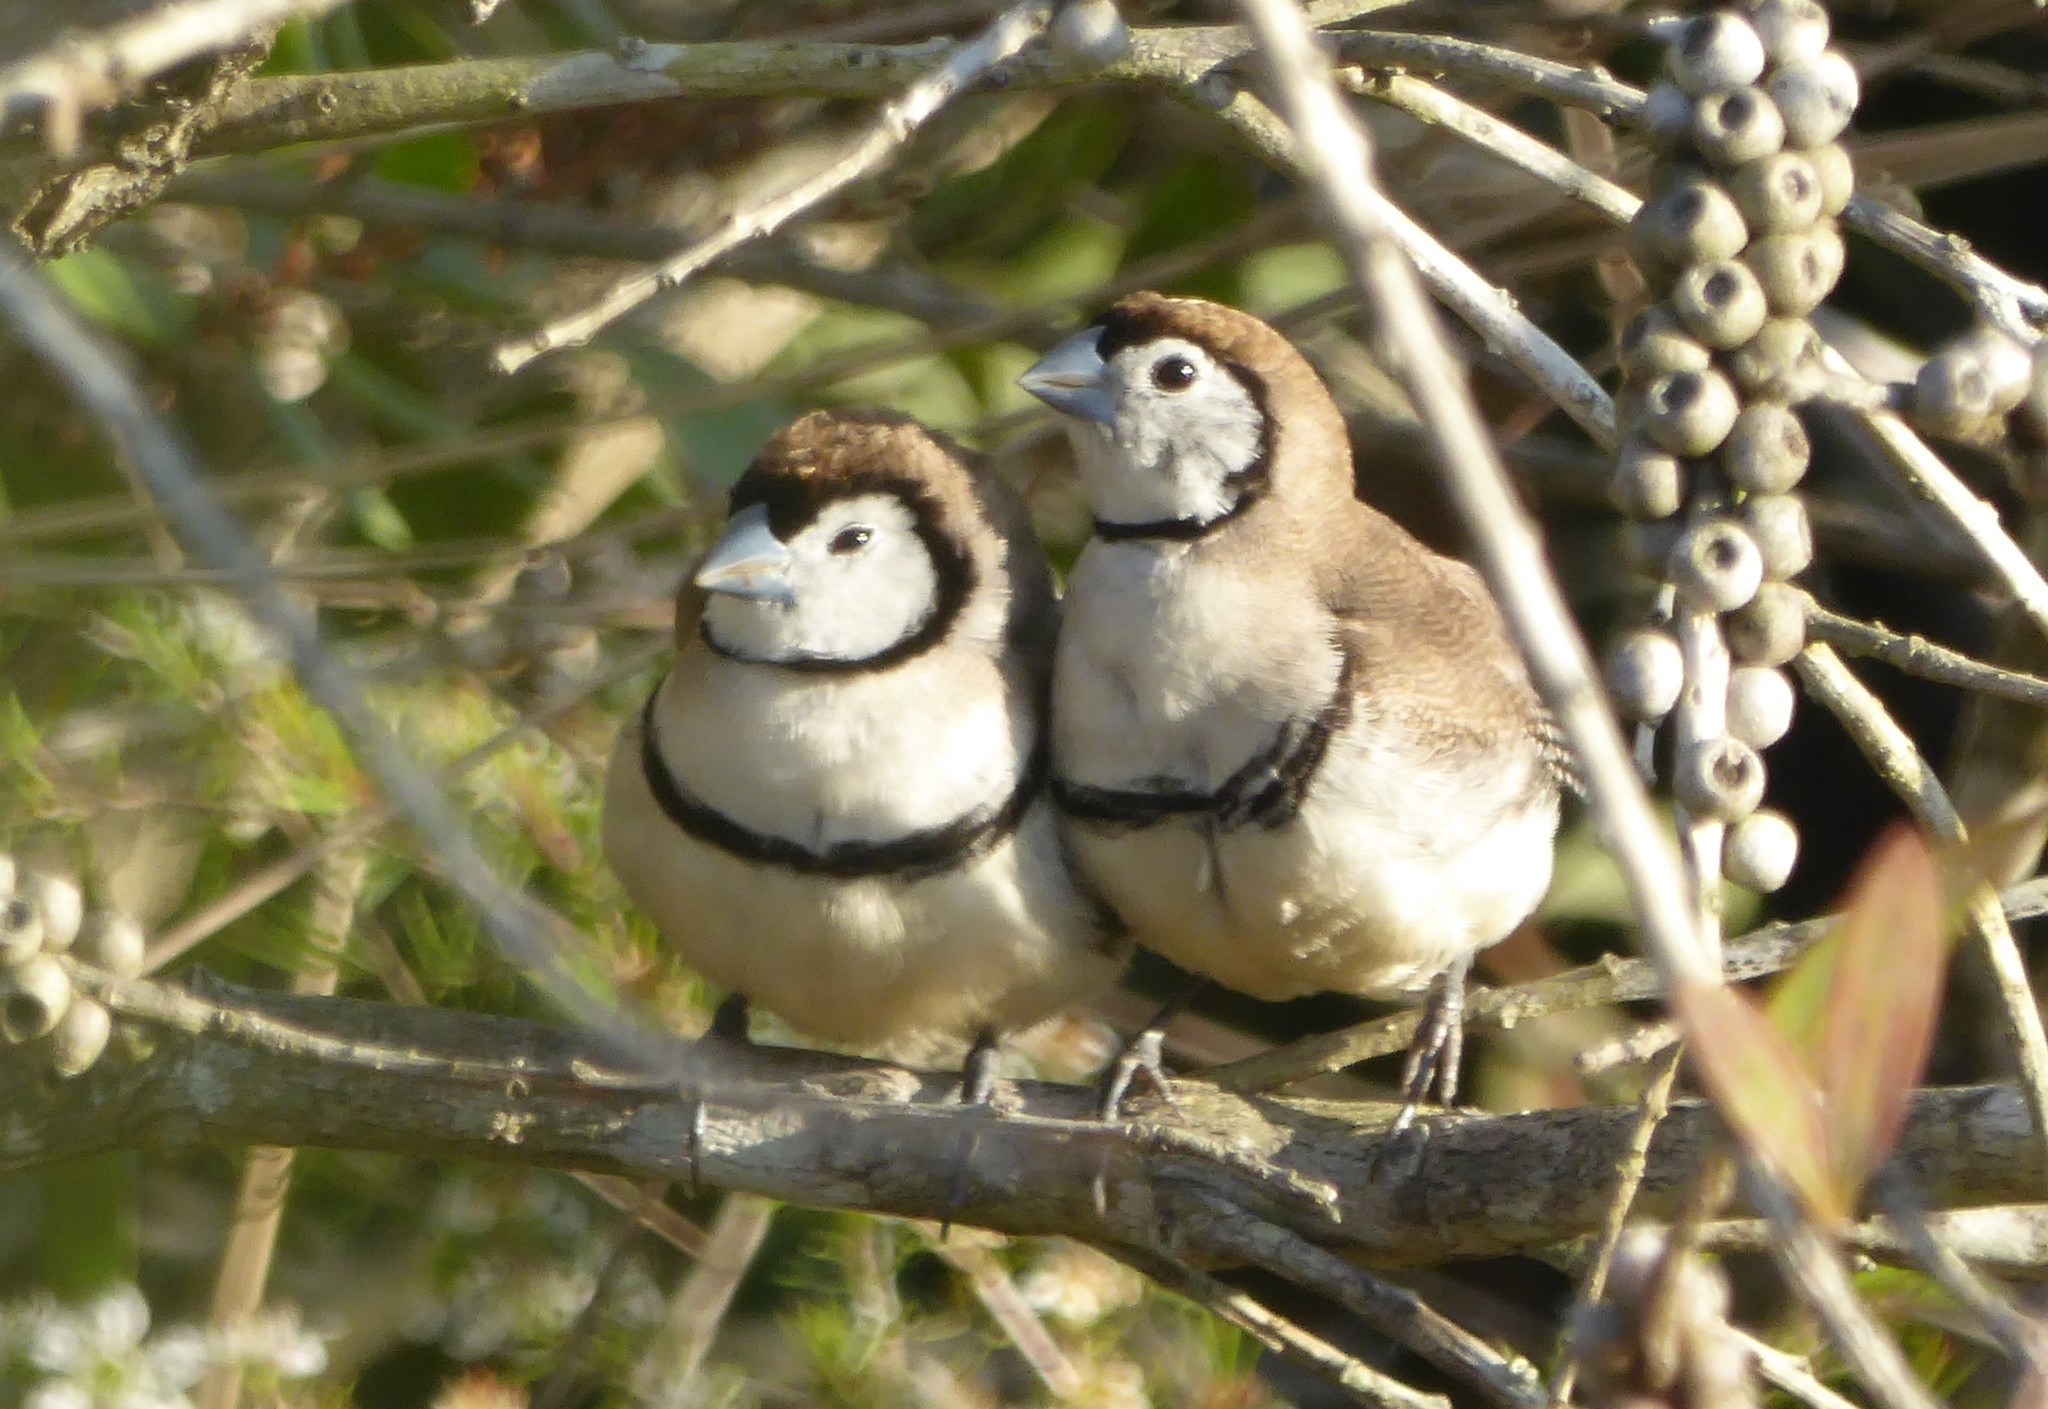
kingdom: Animalia
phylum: Chordata
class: Aves
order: Passeriformes
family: Estrildidae
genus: Taeniopygia
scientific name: Taeniopygia bichenovii
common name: Double-barred finch
